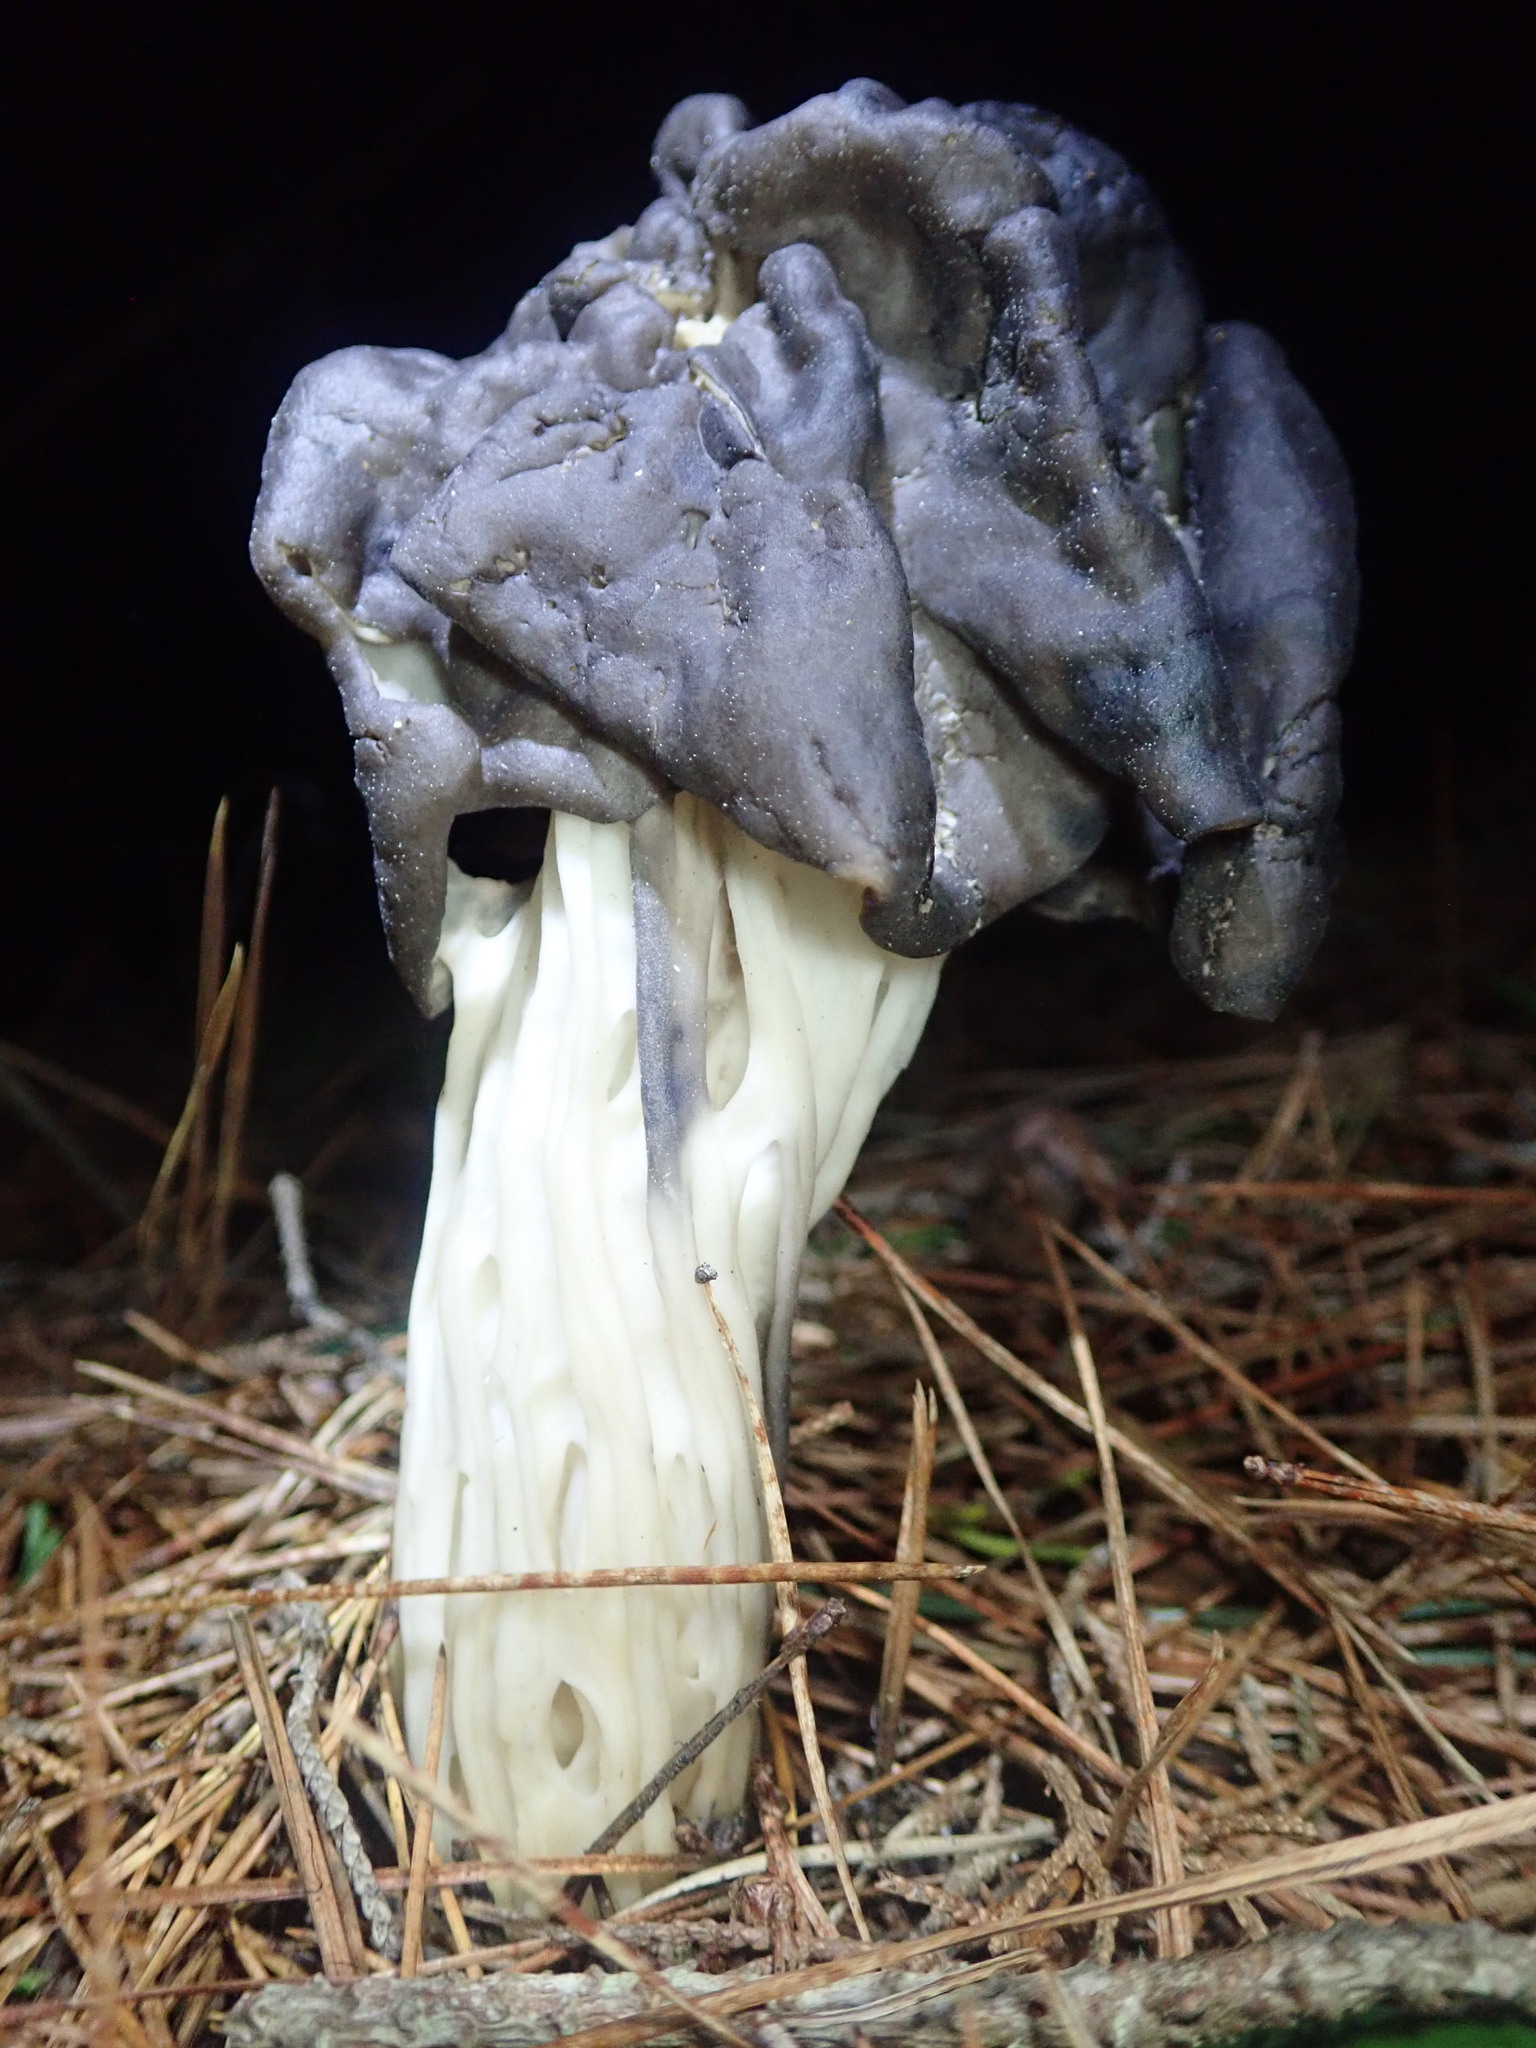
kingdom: Fungi
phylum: Ascomycota
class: Pezizomycetes
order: Pezizales
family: Helvellaceae
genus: Helvella
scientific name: Helvella vespertina
